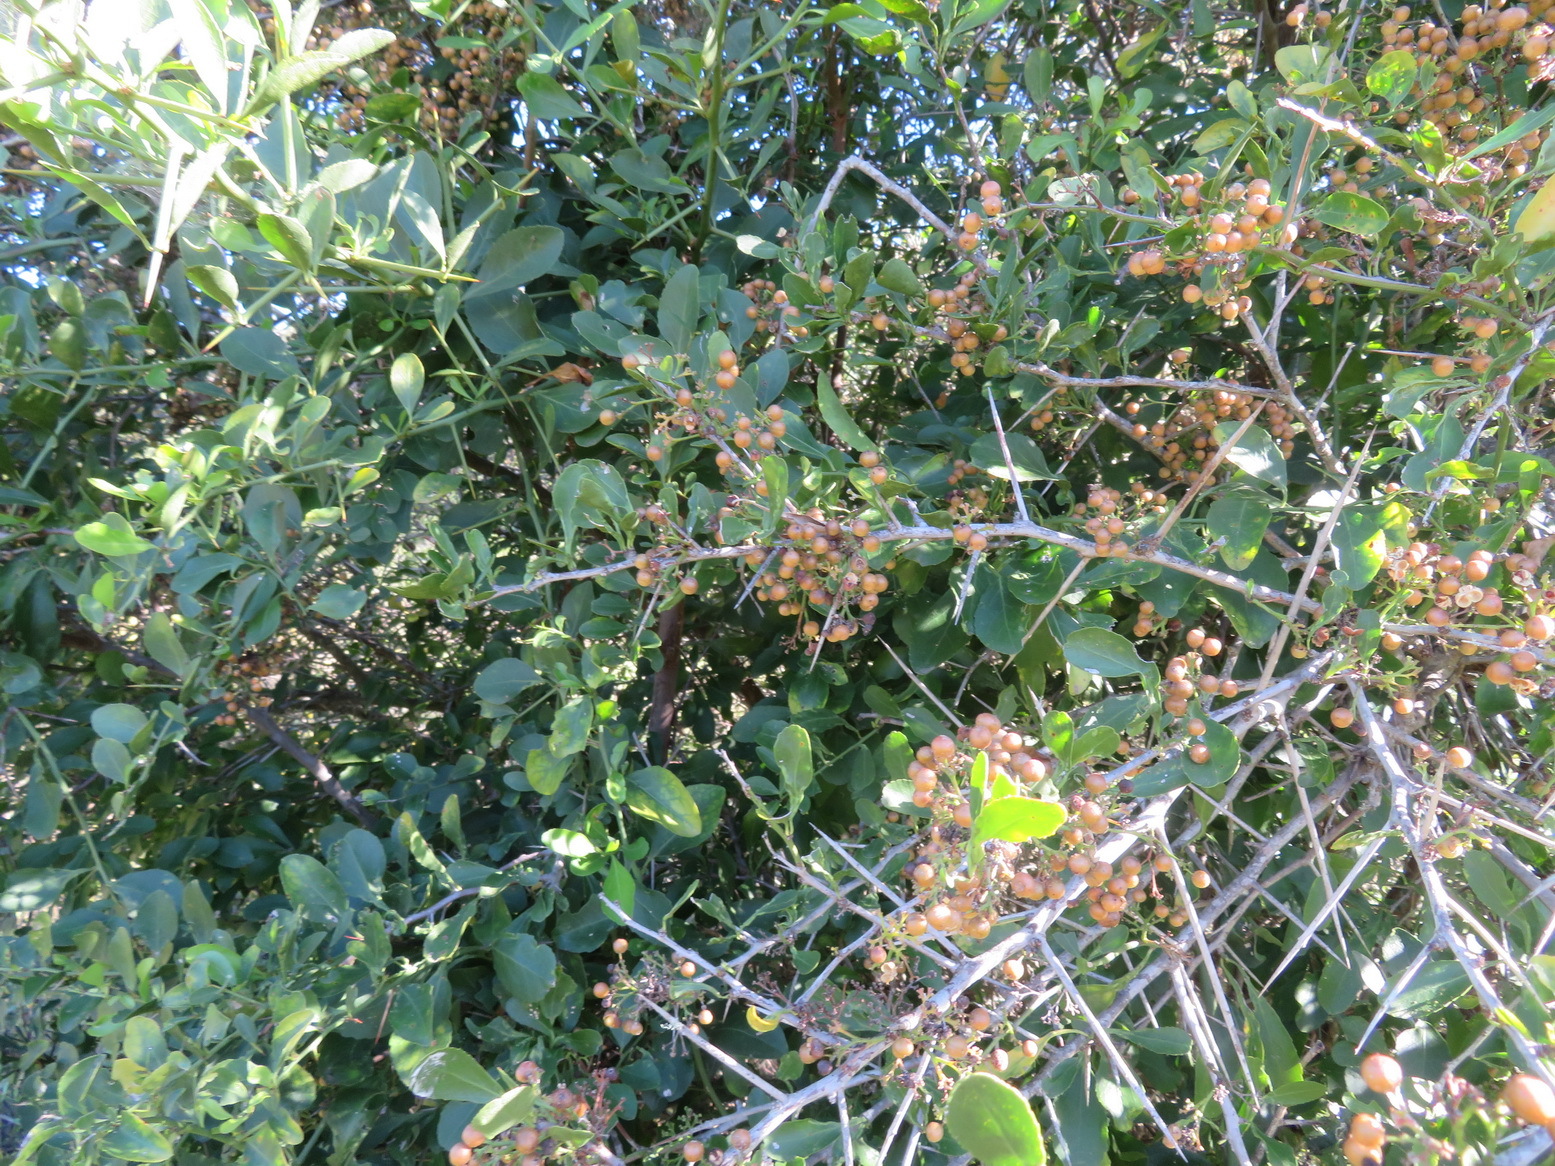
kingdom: Plantae
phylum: Tracheophyta
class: Magnoliopsida
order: Celastrales
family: Celastraceae
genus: Gymnosporia
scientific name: Gymnosporia buxifolia
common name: Common spike-thorn
